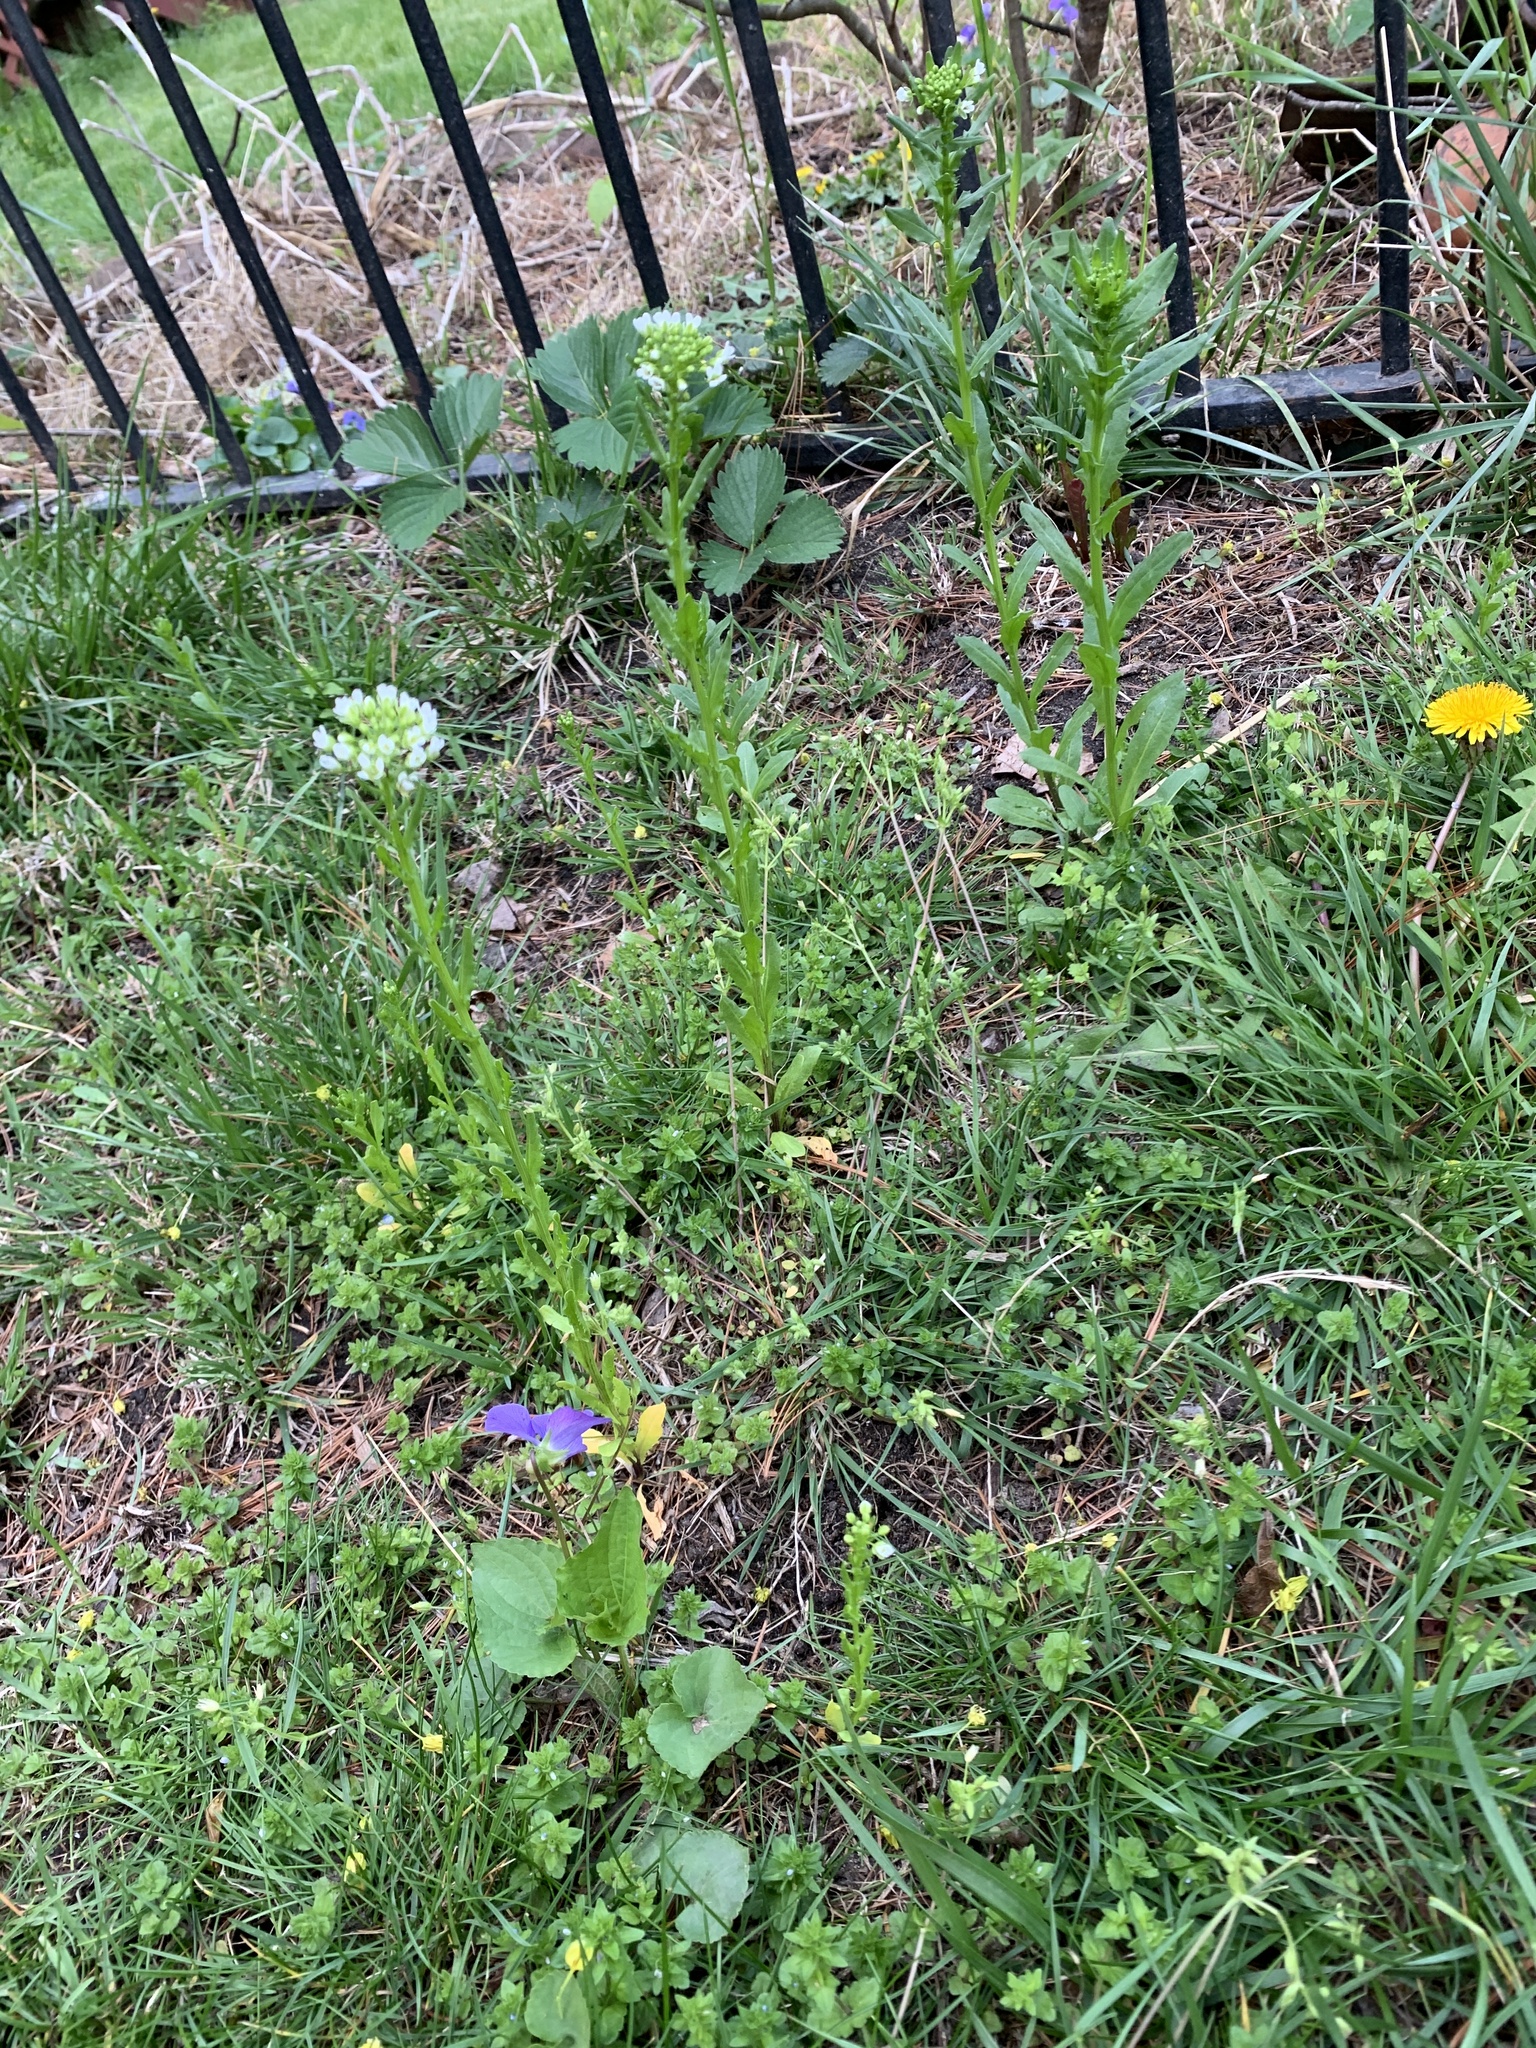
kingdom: Plantae
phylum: Tracheophyta
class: Magnoliopsida
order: Brassicales
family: Brassicaceae
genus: Thlaspi
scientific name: Thlaspi arvense
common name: Field pennycress
